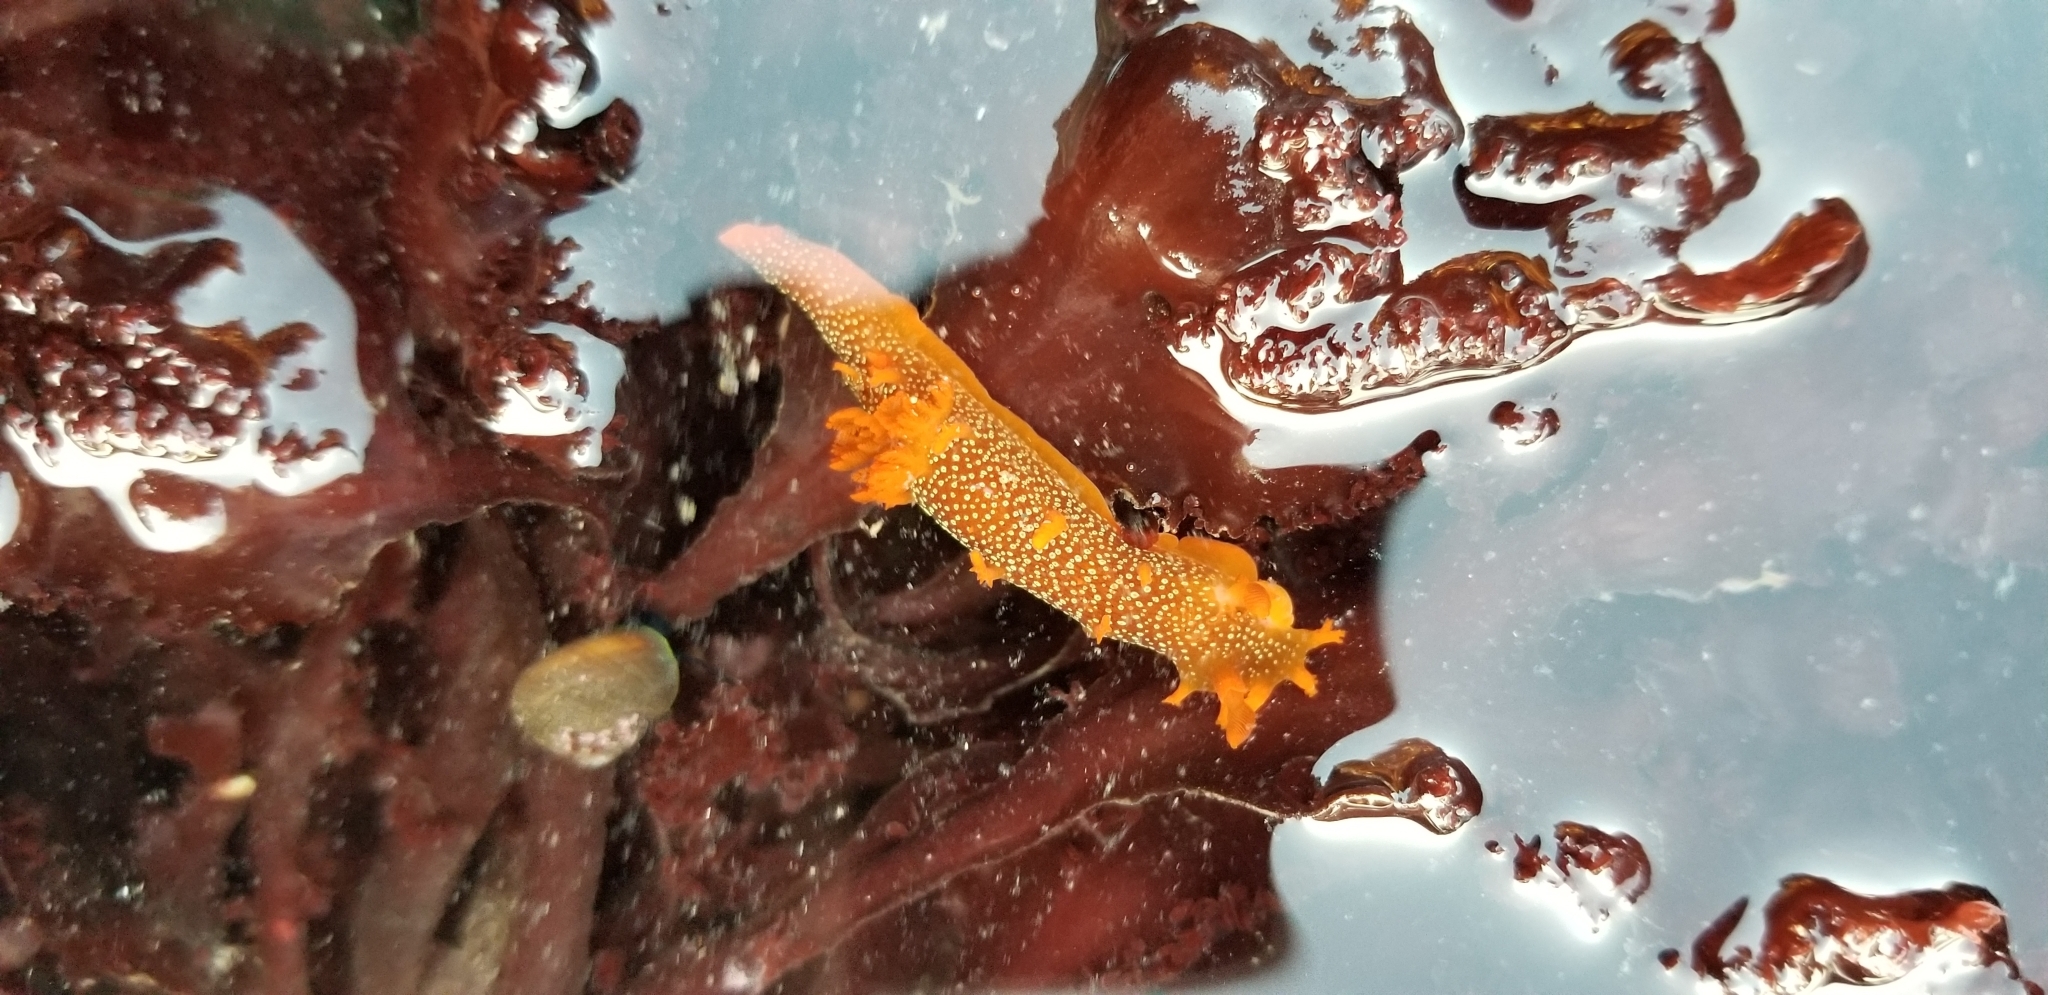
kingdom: Animalia
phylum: Mollusca
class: Gastropoda
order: Nudibranchia
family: Polyceridae
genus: Triopha
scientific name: Triopha maculata
